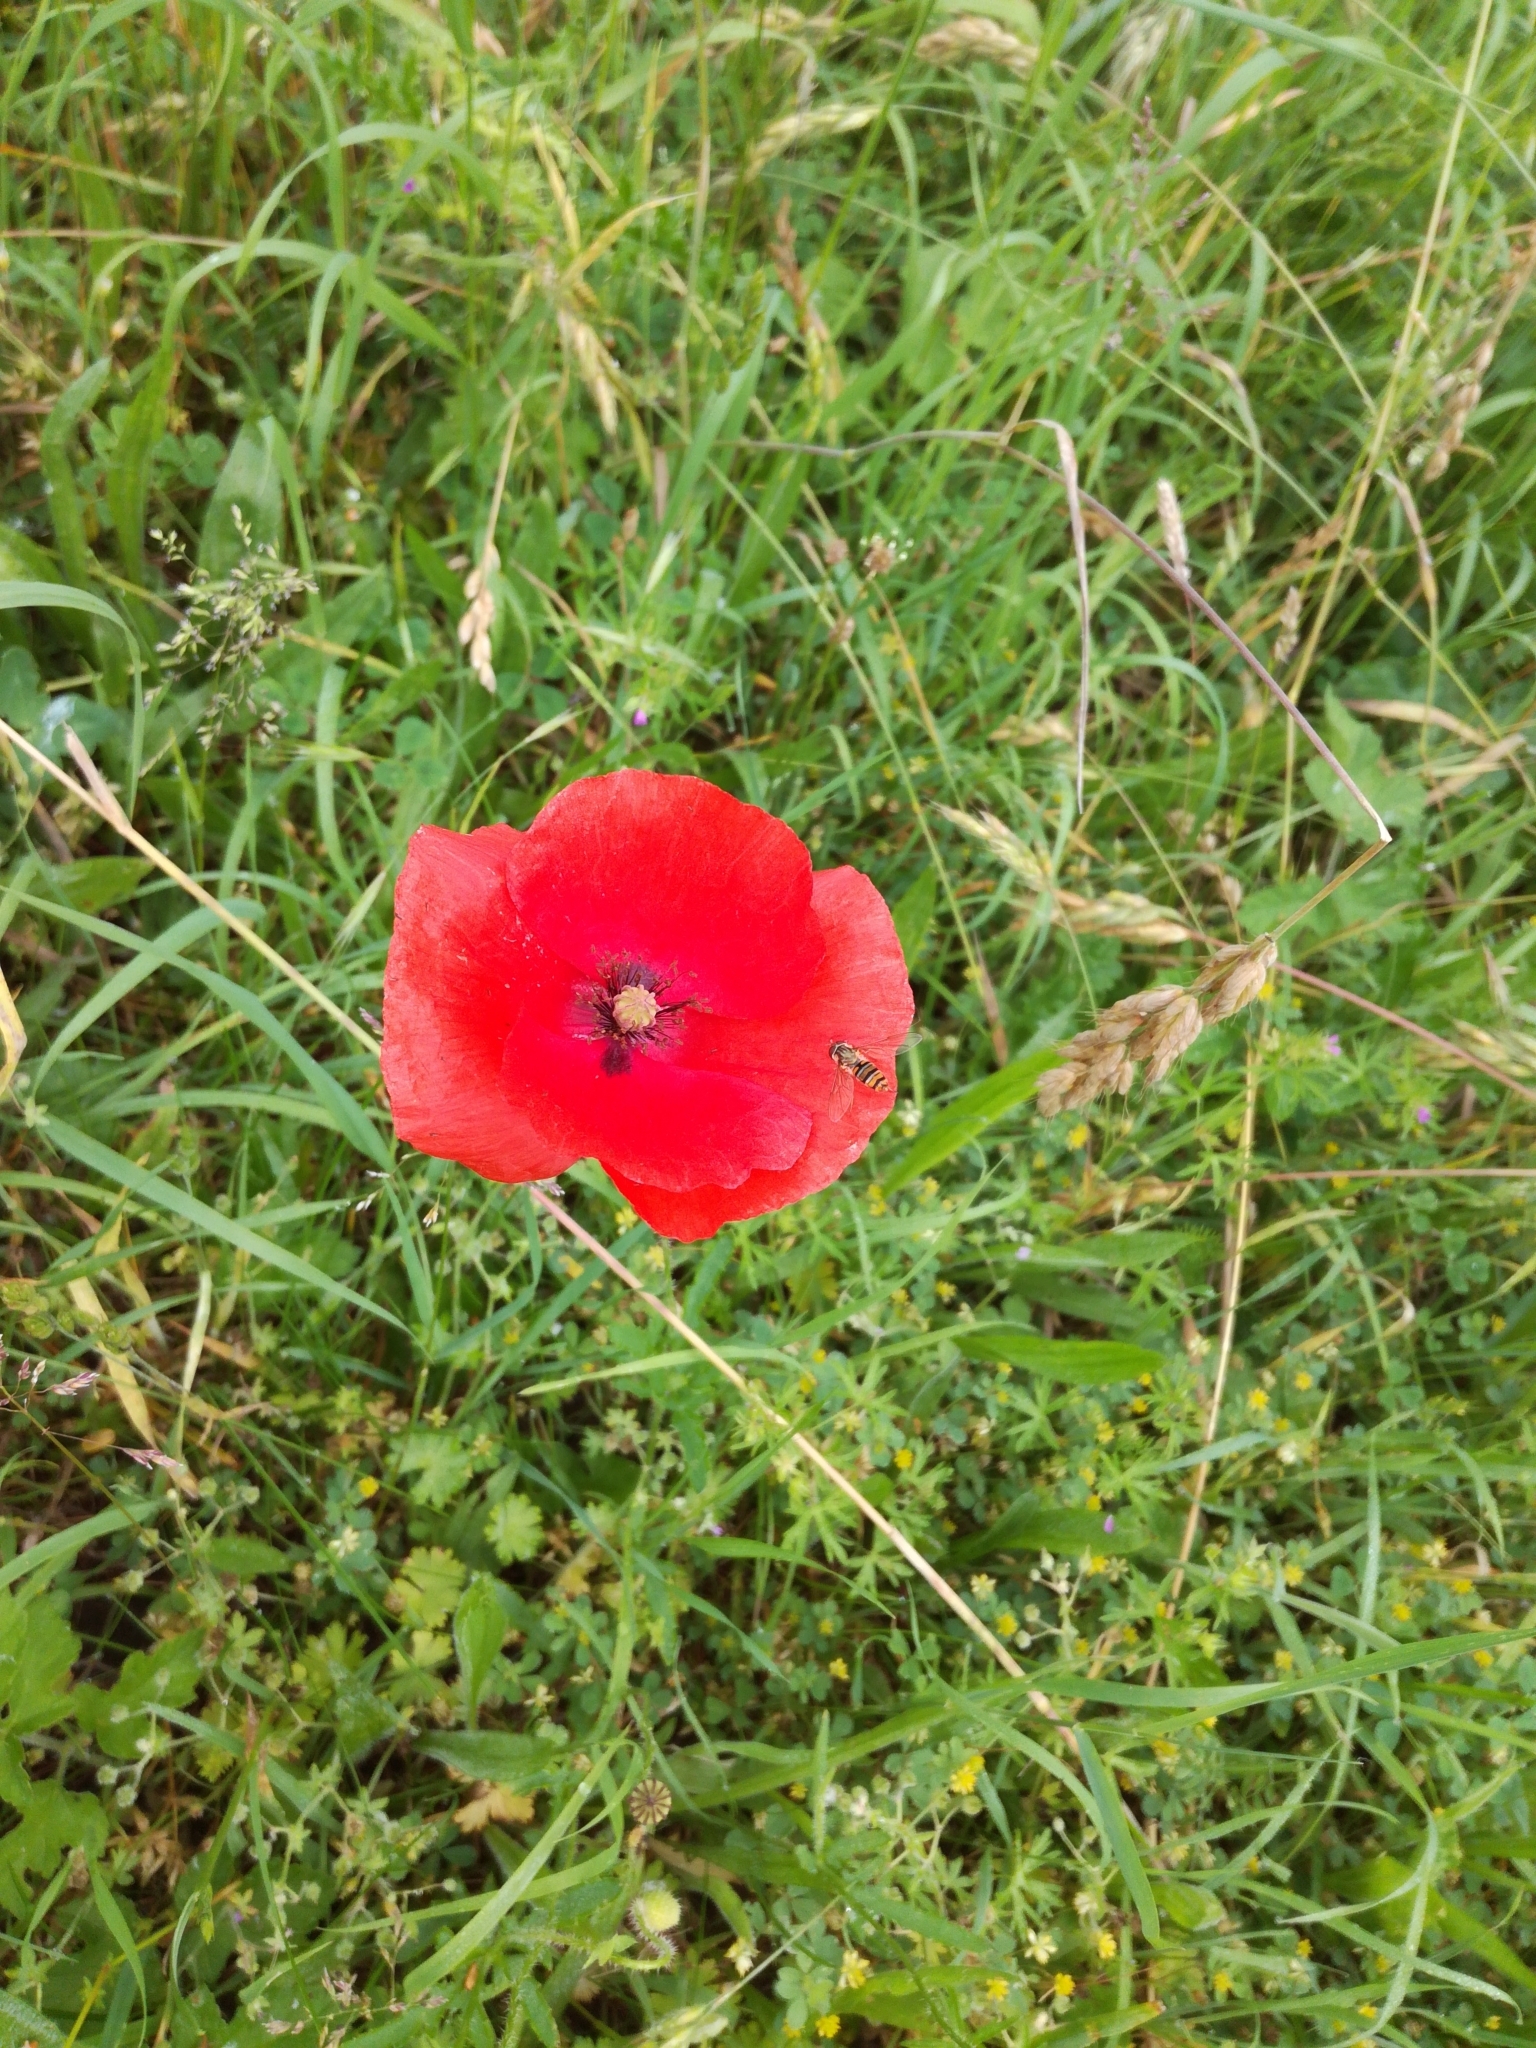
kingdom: Plantae
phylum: Tracheophyta
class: Magnoliopsida
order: Ranunculales
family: Papaveraceae
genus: Papaver
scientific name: Papaver rhoeas
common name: Corn poppy
